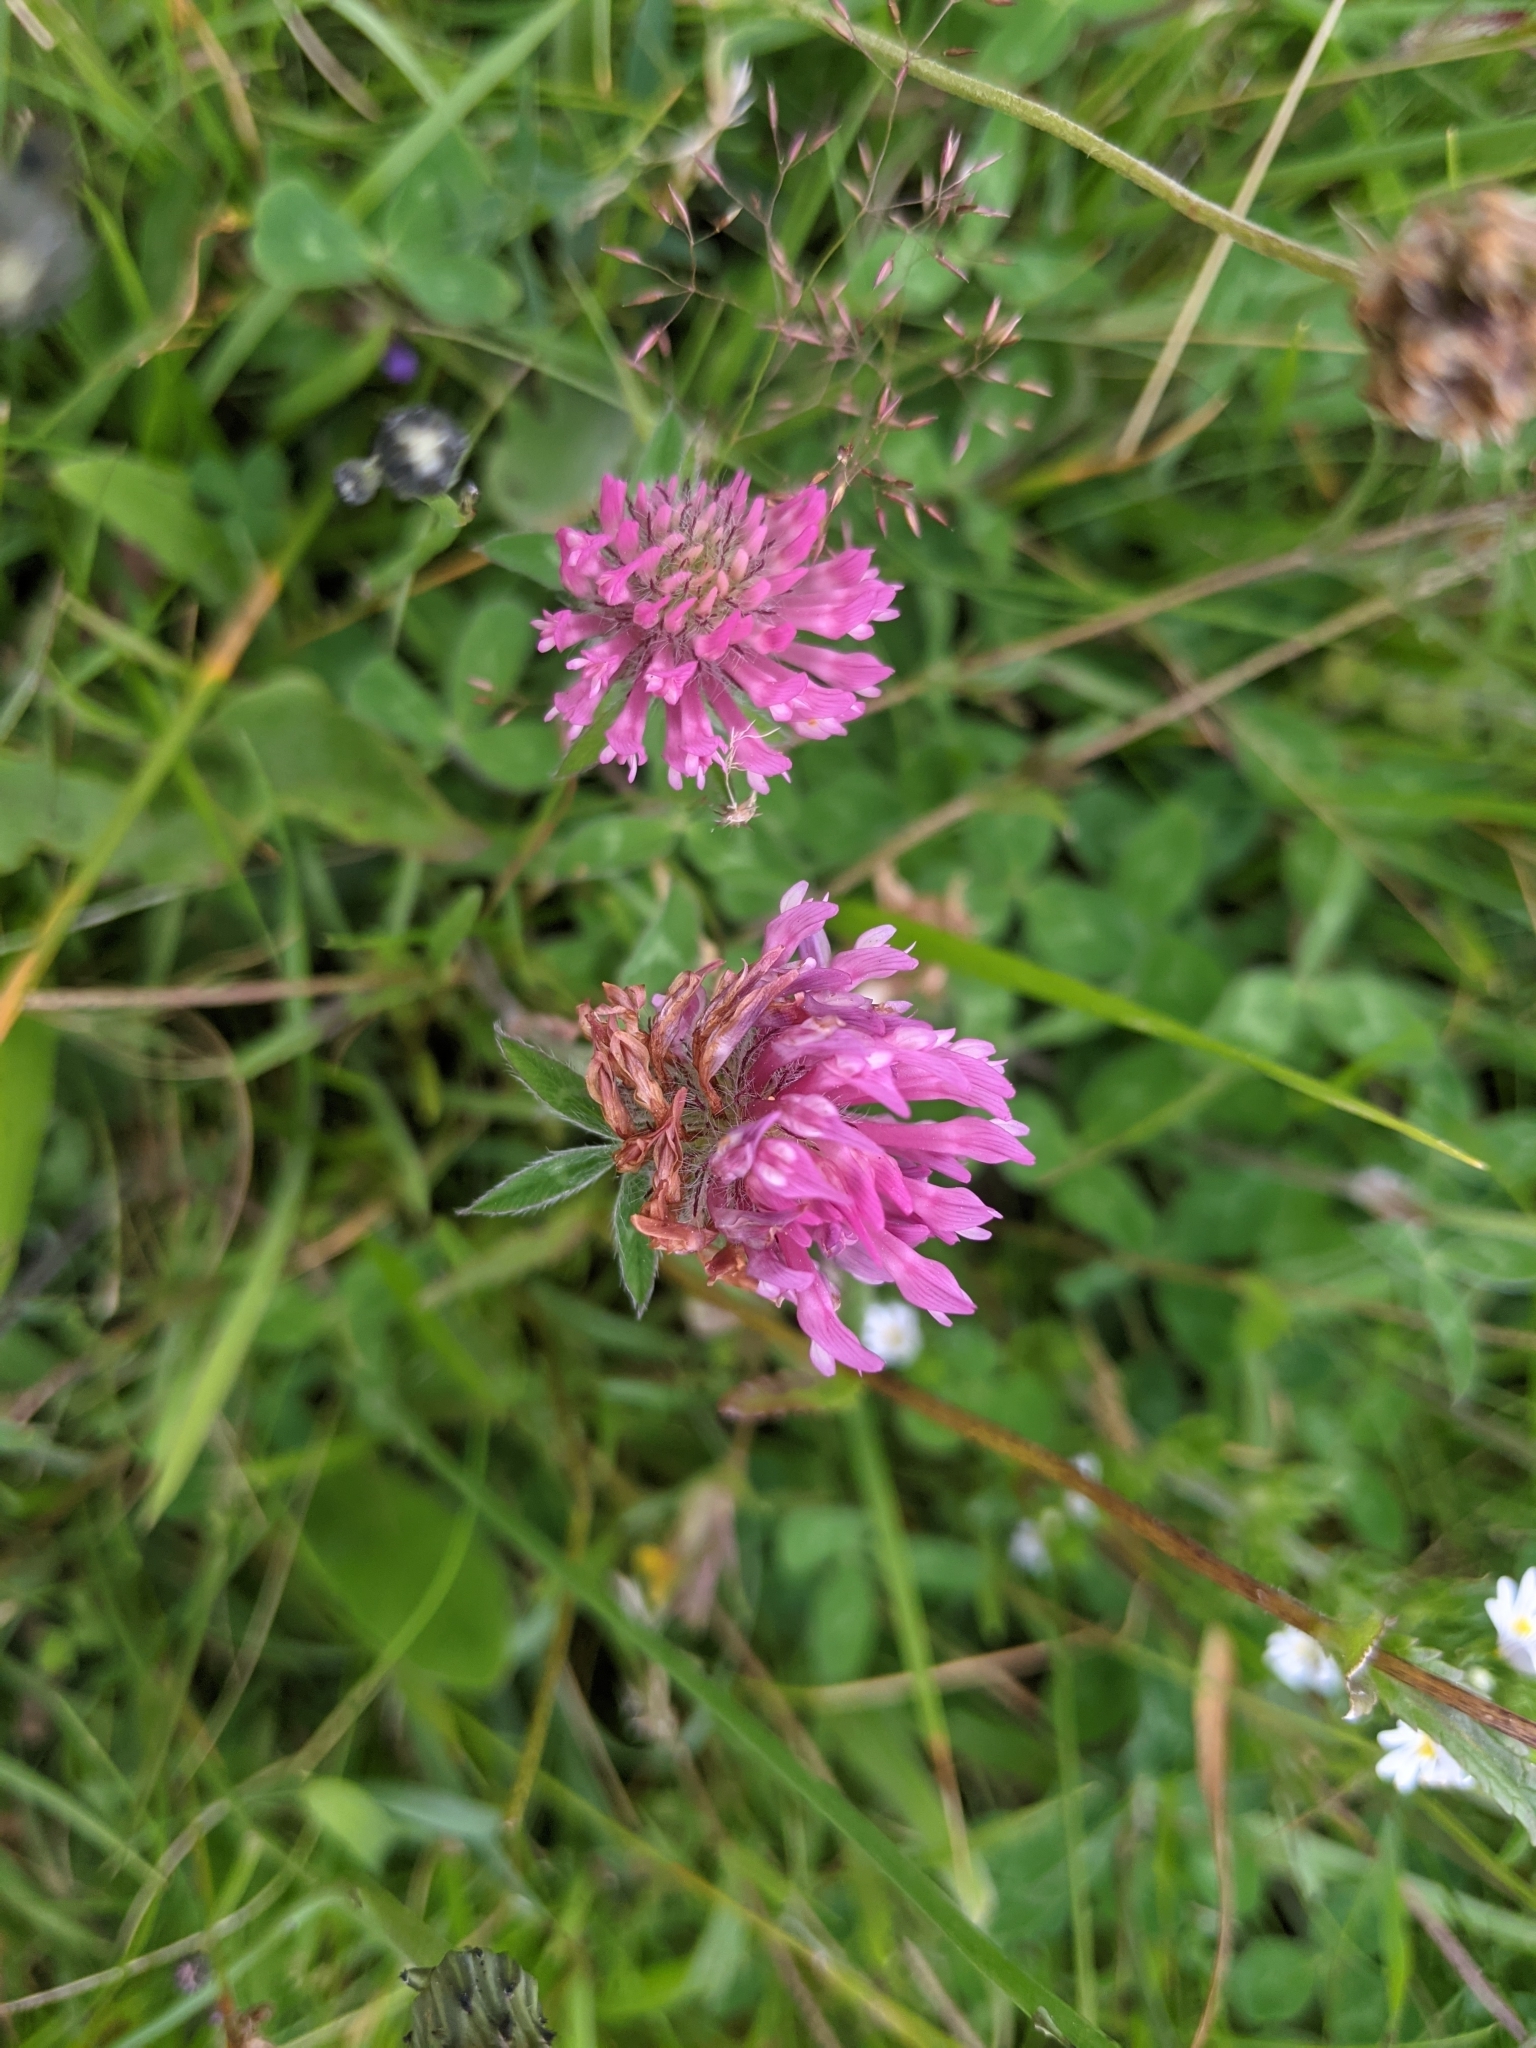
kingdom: Plantae
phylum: Tracheophyta
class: Magnoliopsida
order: Fabales
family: Fabaceae
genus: Trifolium
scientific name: Trifolium pratense
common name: Red clover
